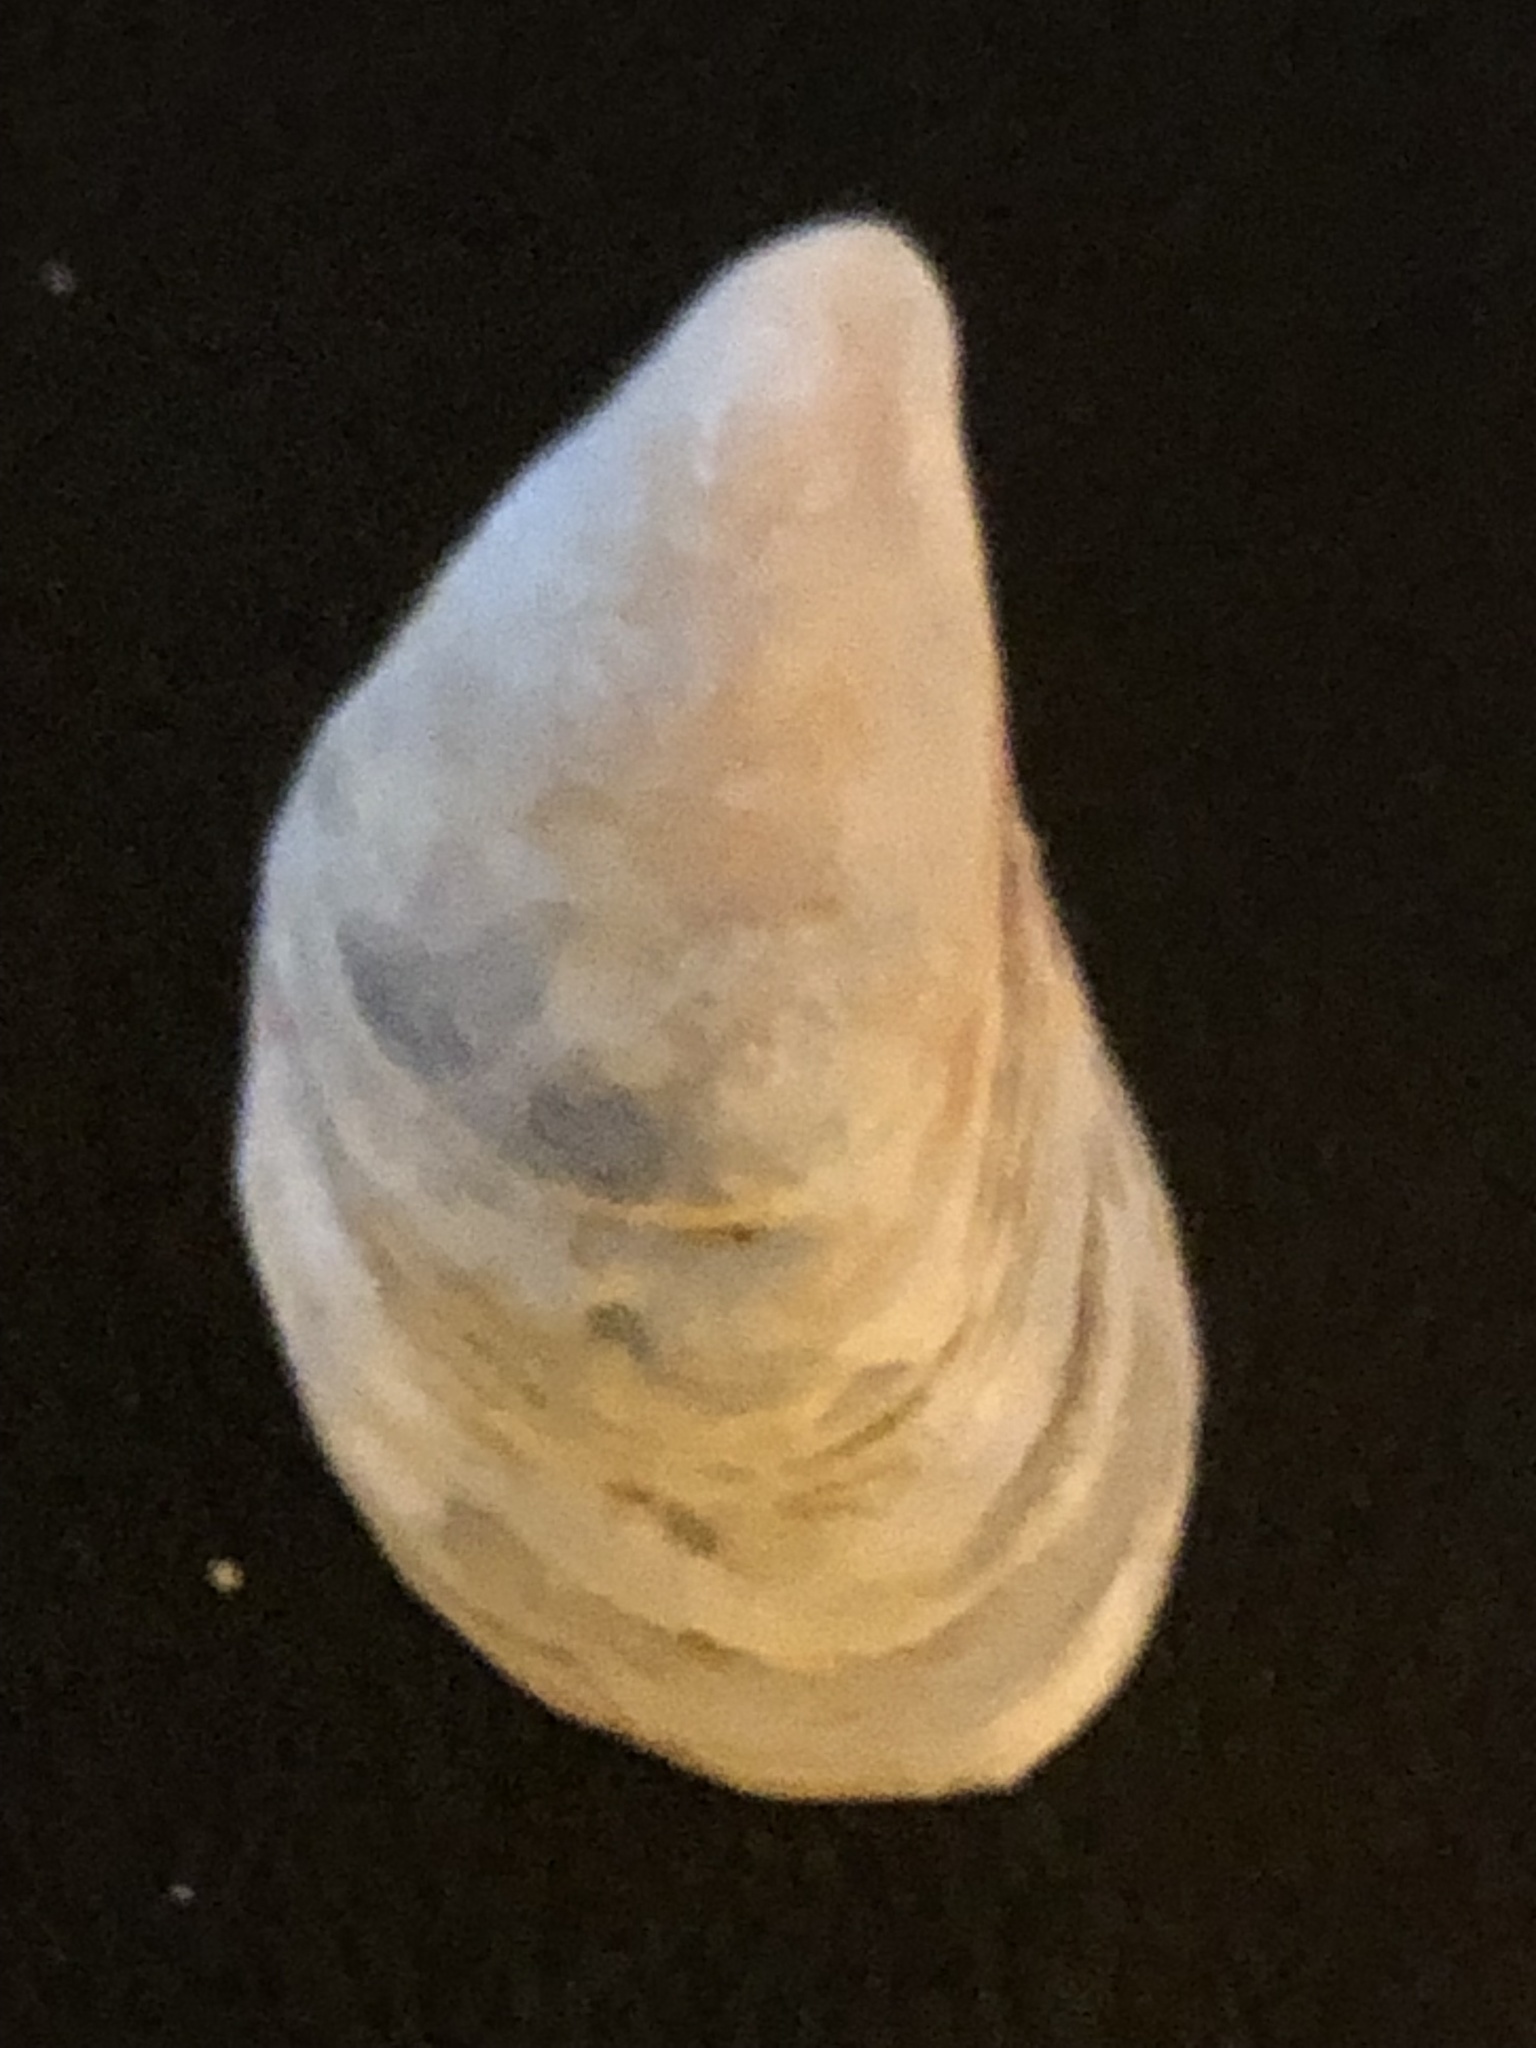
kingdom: Animalia
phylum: Mollusca
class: Bivalvia
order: Myida
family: Dreissenidae
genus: Dreissena
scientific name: Dreissena bugensis
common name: Quagga mussel
